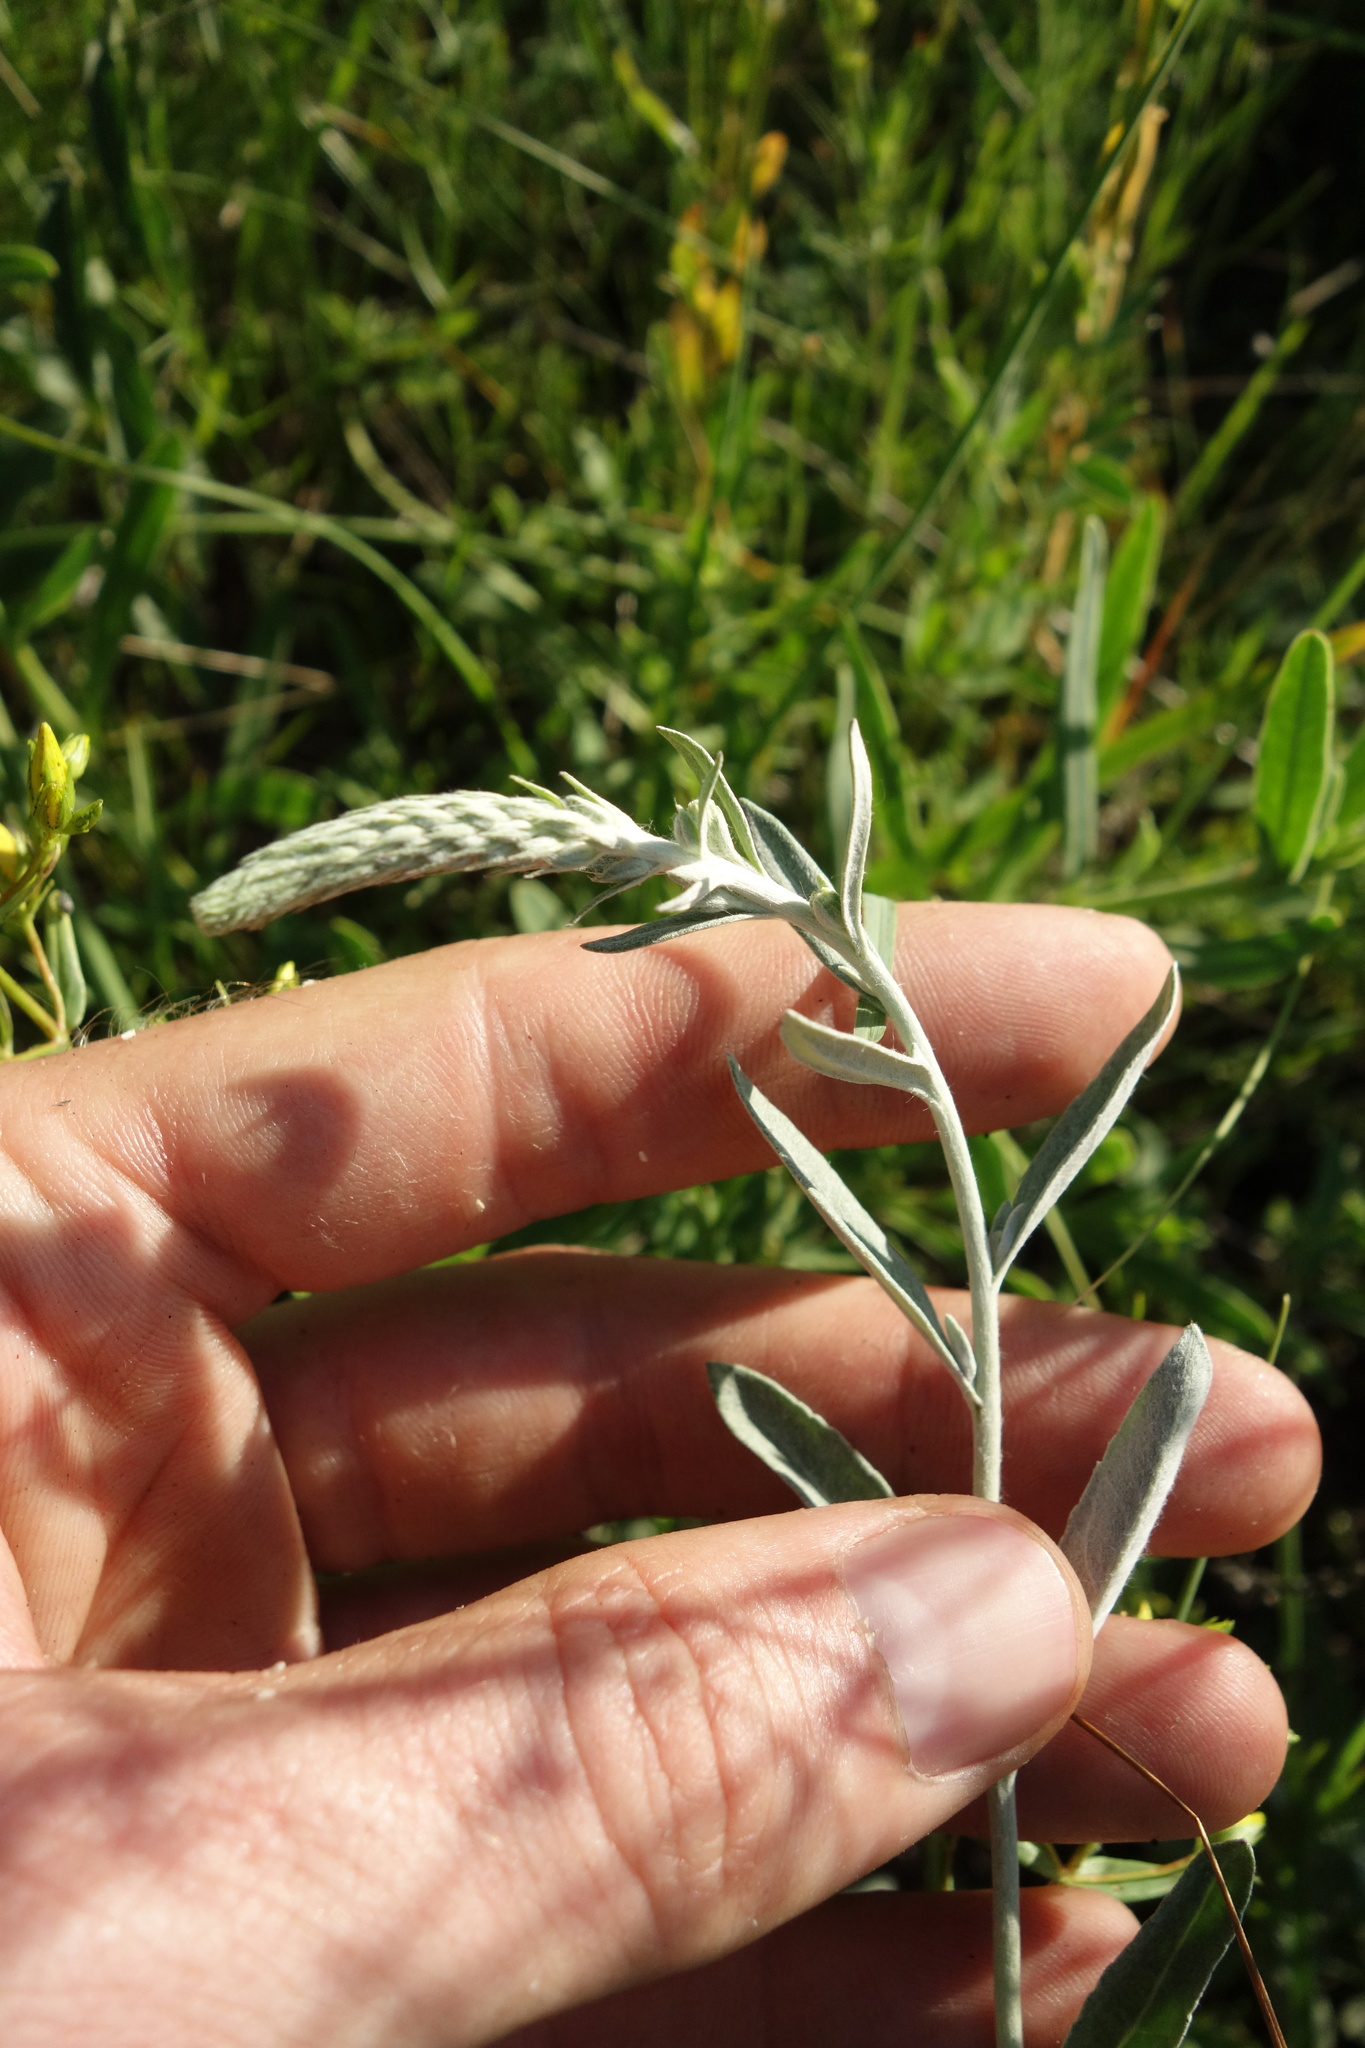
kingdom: Plantae
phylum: Tracheophyta
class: Magnoliopsida
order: Lamiales
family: Plantaginaceae
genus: Veronica
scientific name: Veronica incana
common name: Silver speedwell
